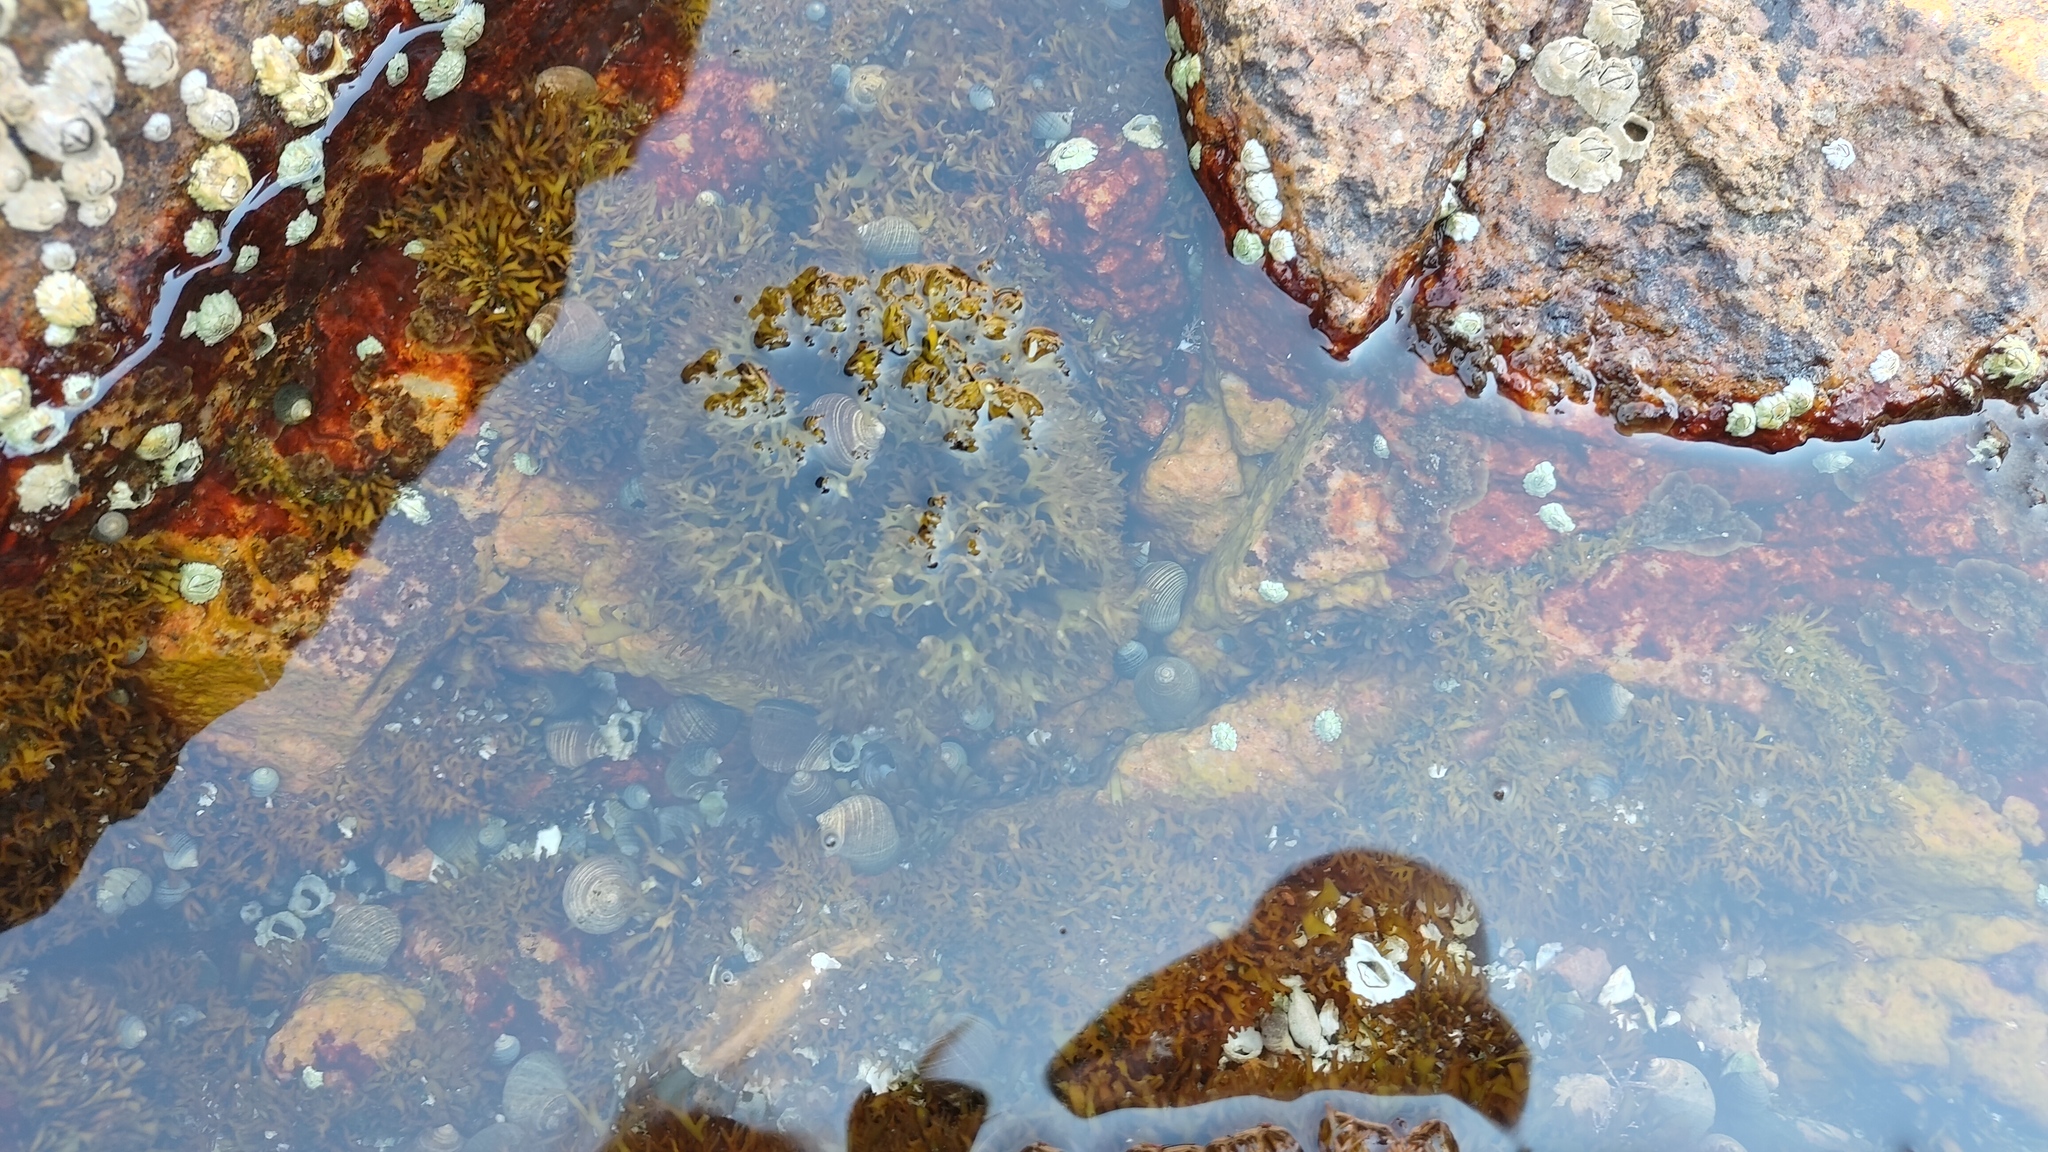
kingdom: Animalia
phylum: Mollusca
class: Gastropoda
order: Littorinimorpha
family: Littorinidae
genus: Littorina
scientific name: Littorina littorea
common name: Common periwinkle
